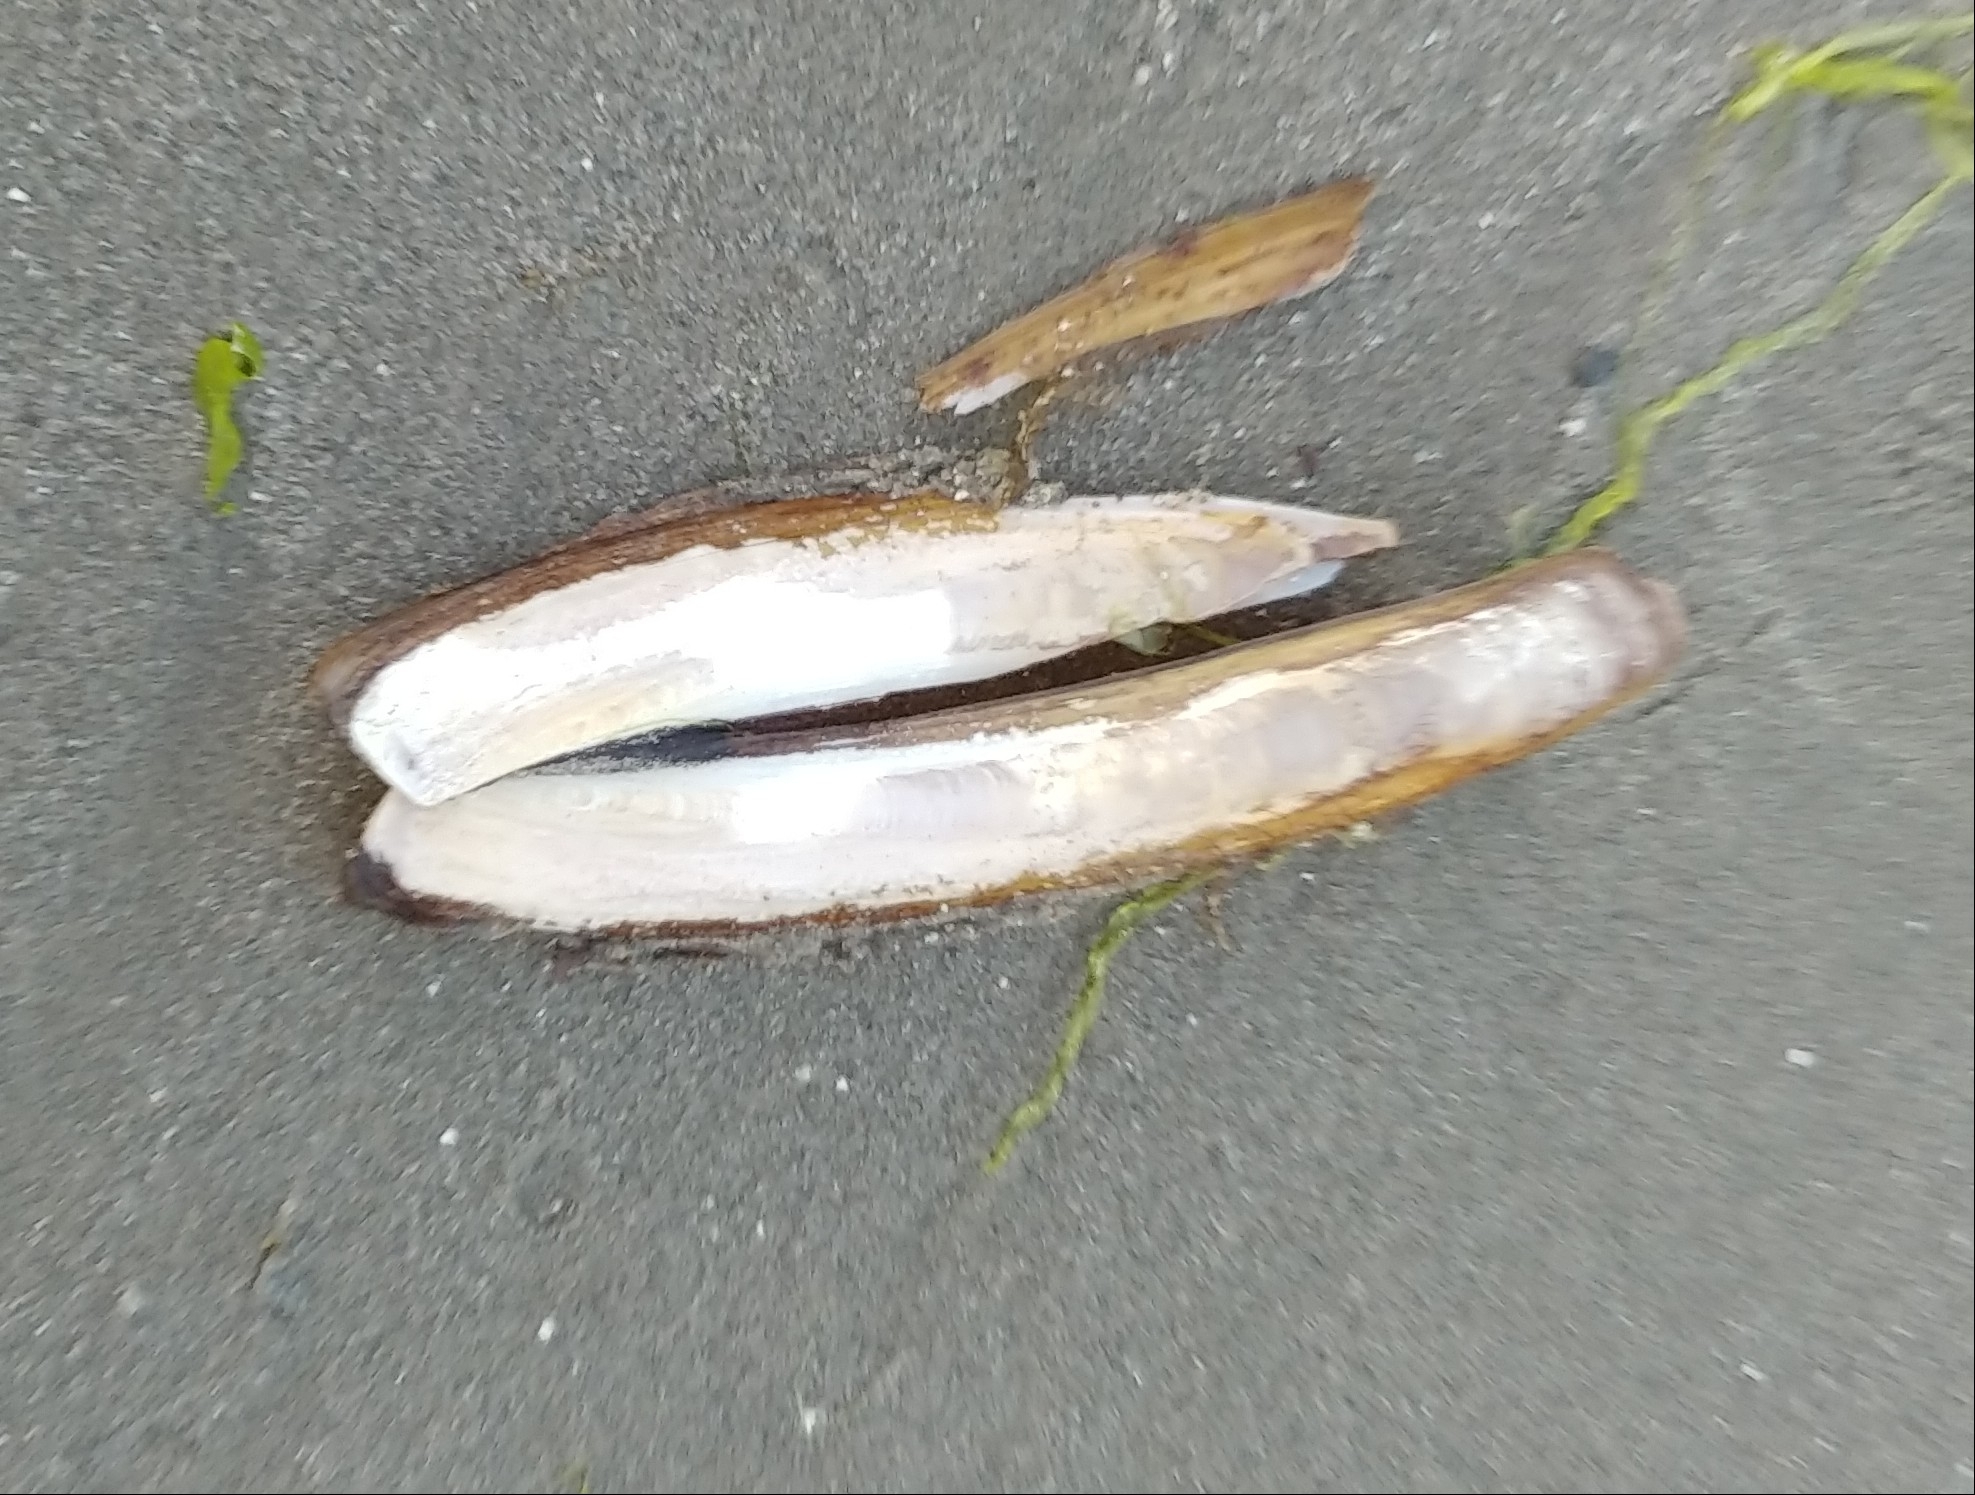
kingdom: Animalia
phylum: Mollusca
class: Bivalvia
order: Adapedonta
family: Pharidae
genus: Ensis
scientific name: Ensis leei
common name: American jack knife clam
